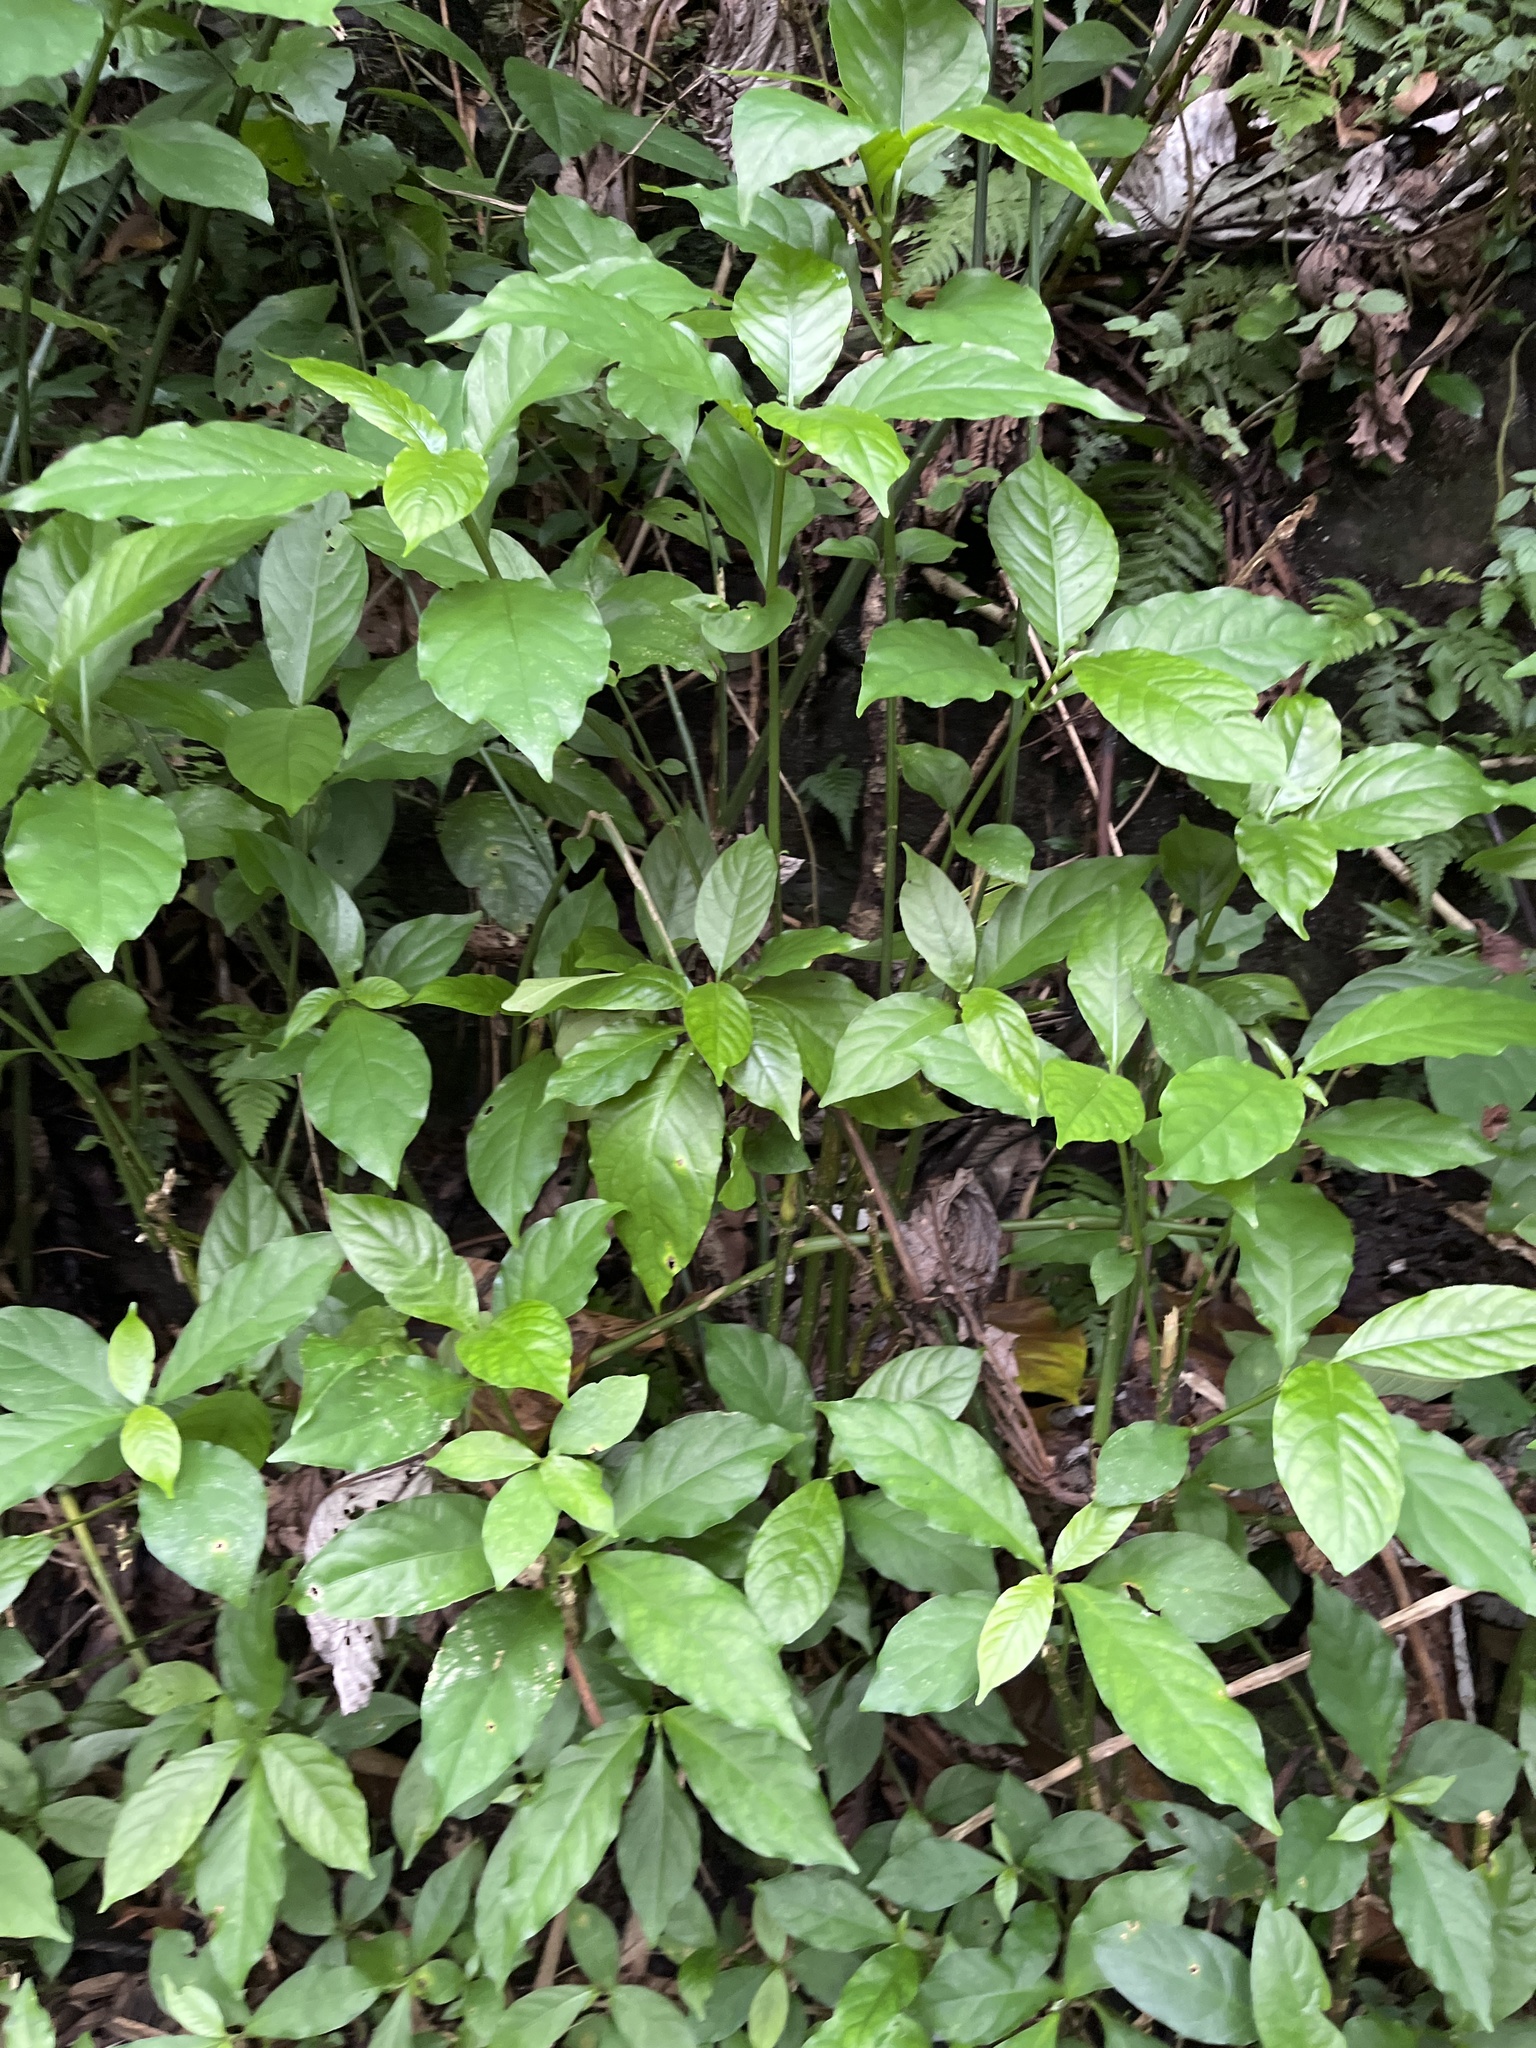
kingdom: Plantae
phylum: Tracheophyta
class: Magnoliopsida
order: Lamiales
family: Acanthaceae
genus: Odontonema
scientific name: Odontonema cuspidatum
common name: Mottled toothedthread
